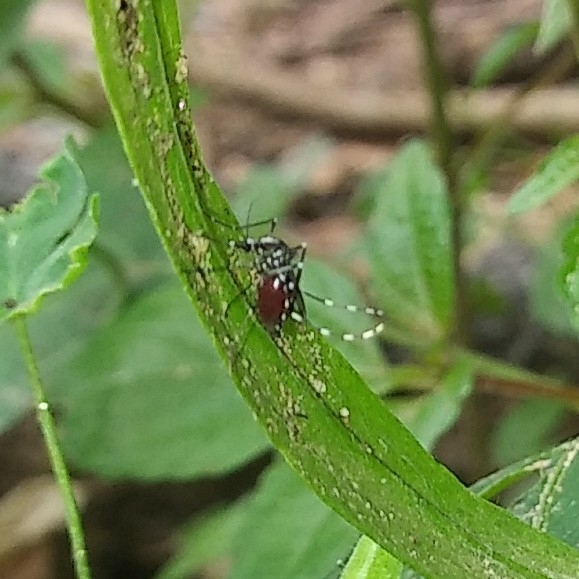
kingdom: Animalia
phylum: Arthropoda
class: Insecta
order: Diptera
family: Culicidae
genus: Aedes
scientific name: Aedes albopictus
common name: Tiger mosquito
